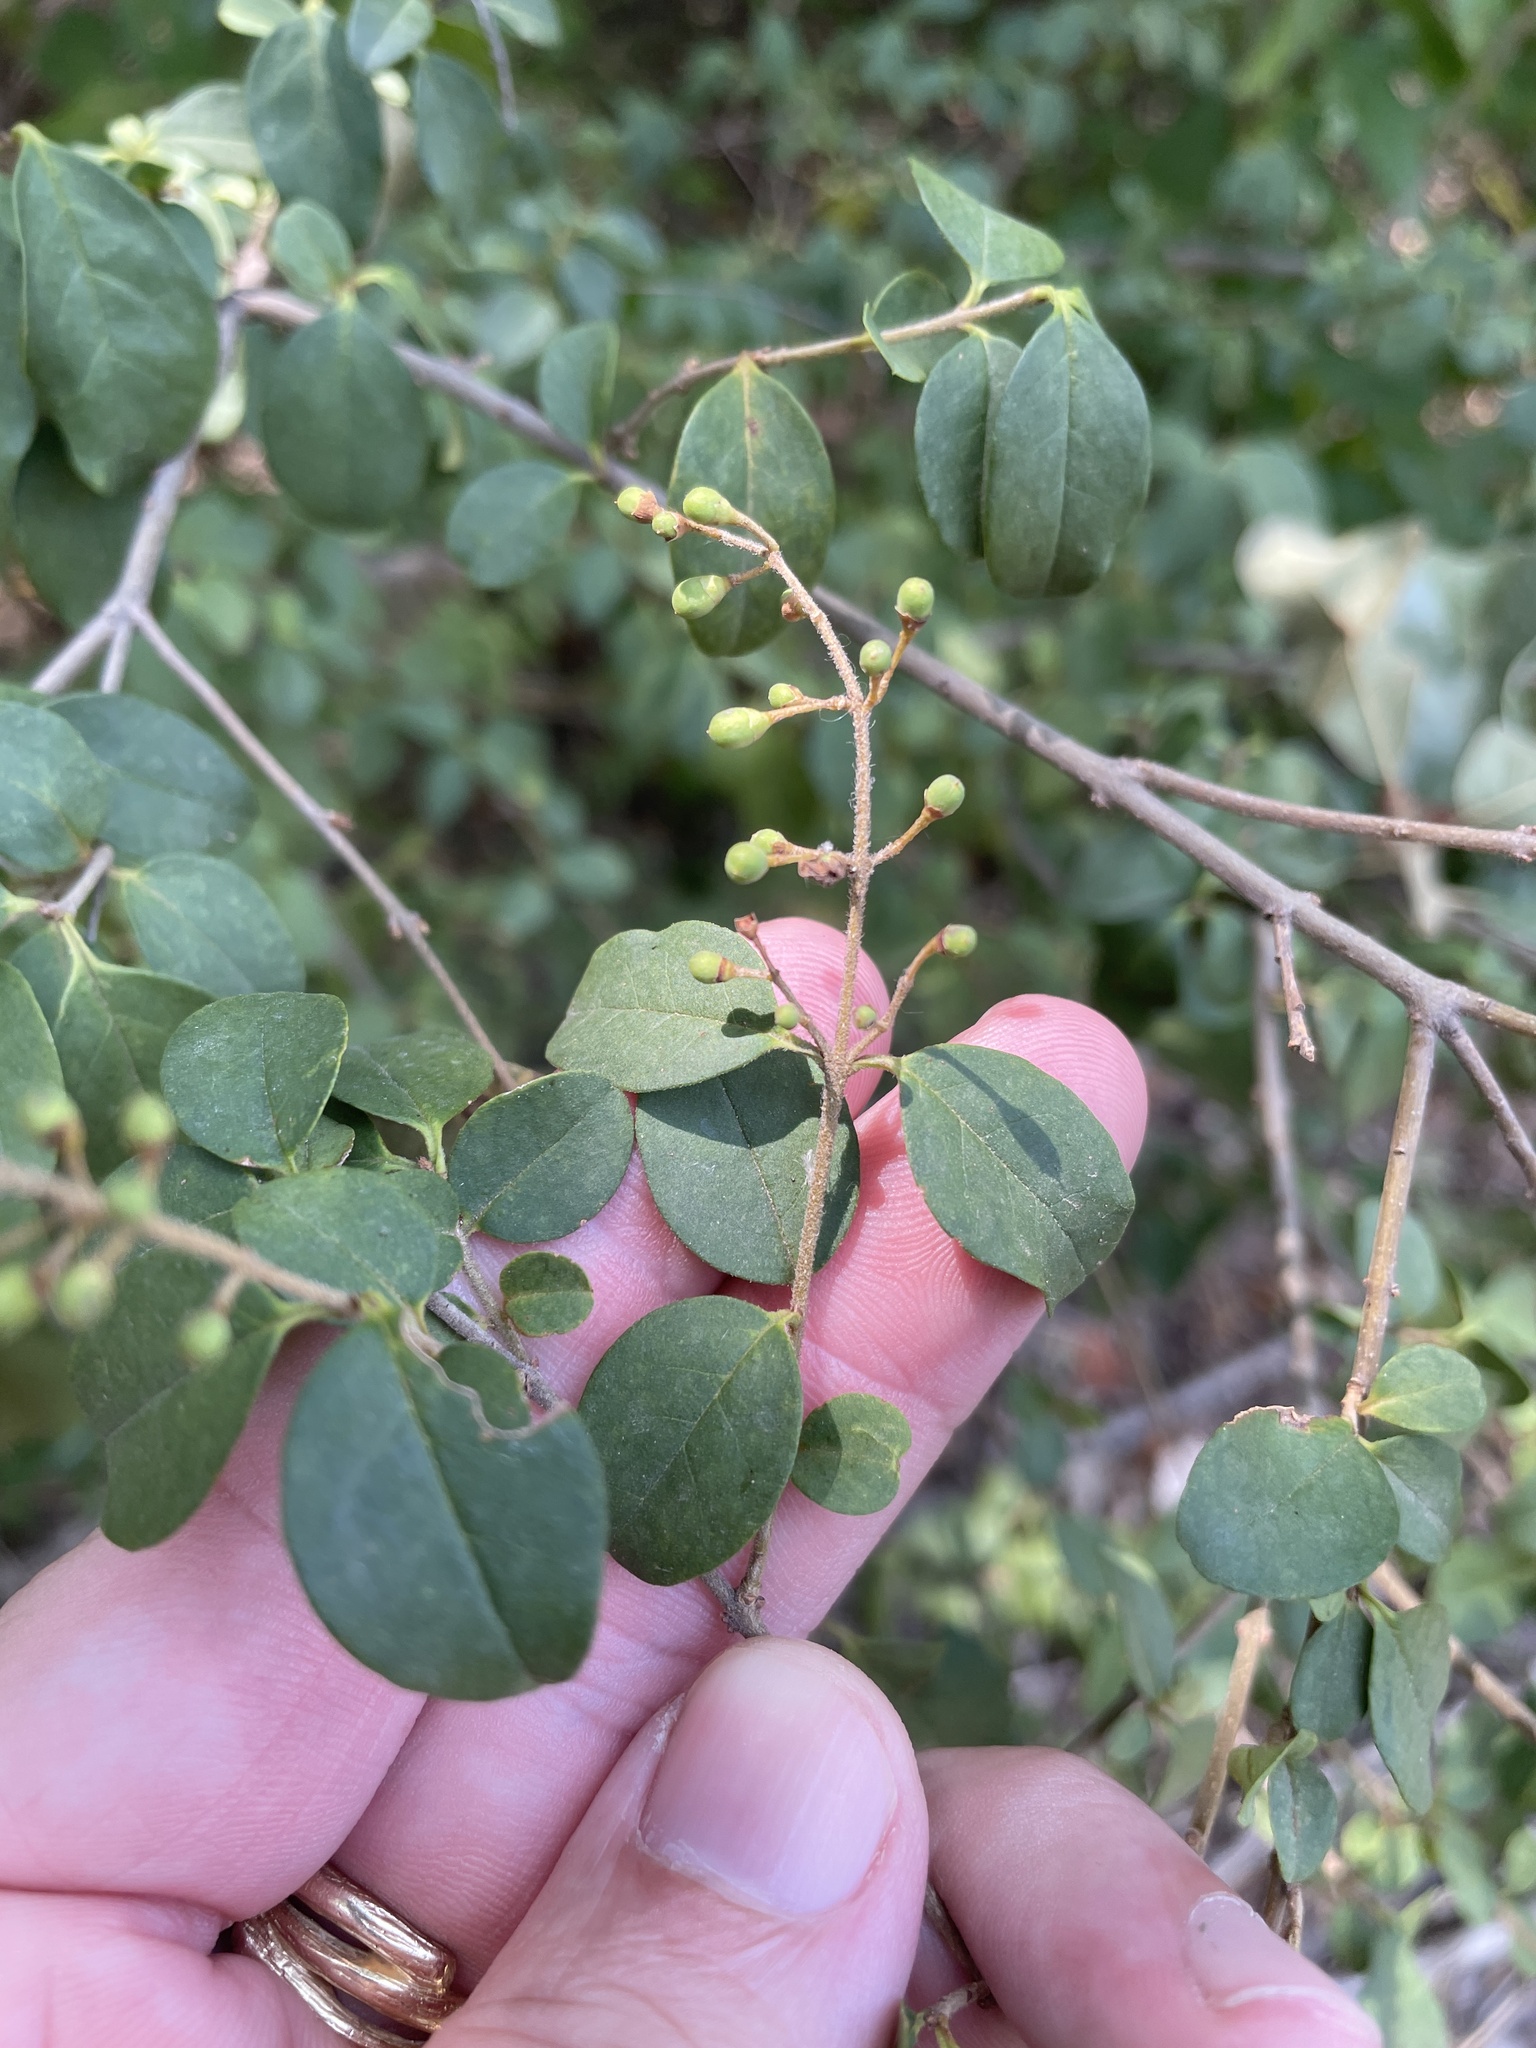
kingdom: Plantae
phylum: Tracheophyta
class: Magnoliopsida
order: Lamiales
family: Oleaceae
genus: Ligustrum
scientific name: Ligustrum sinense
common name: Chinese privet
